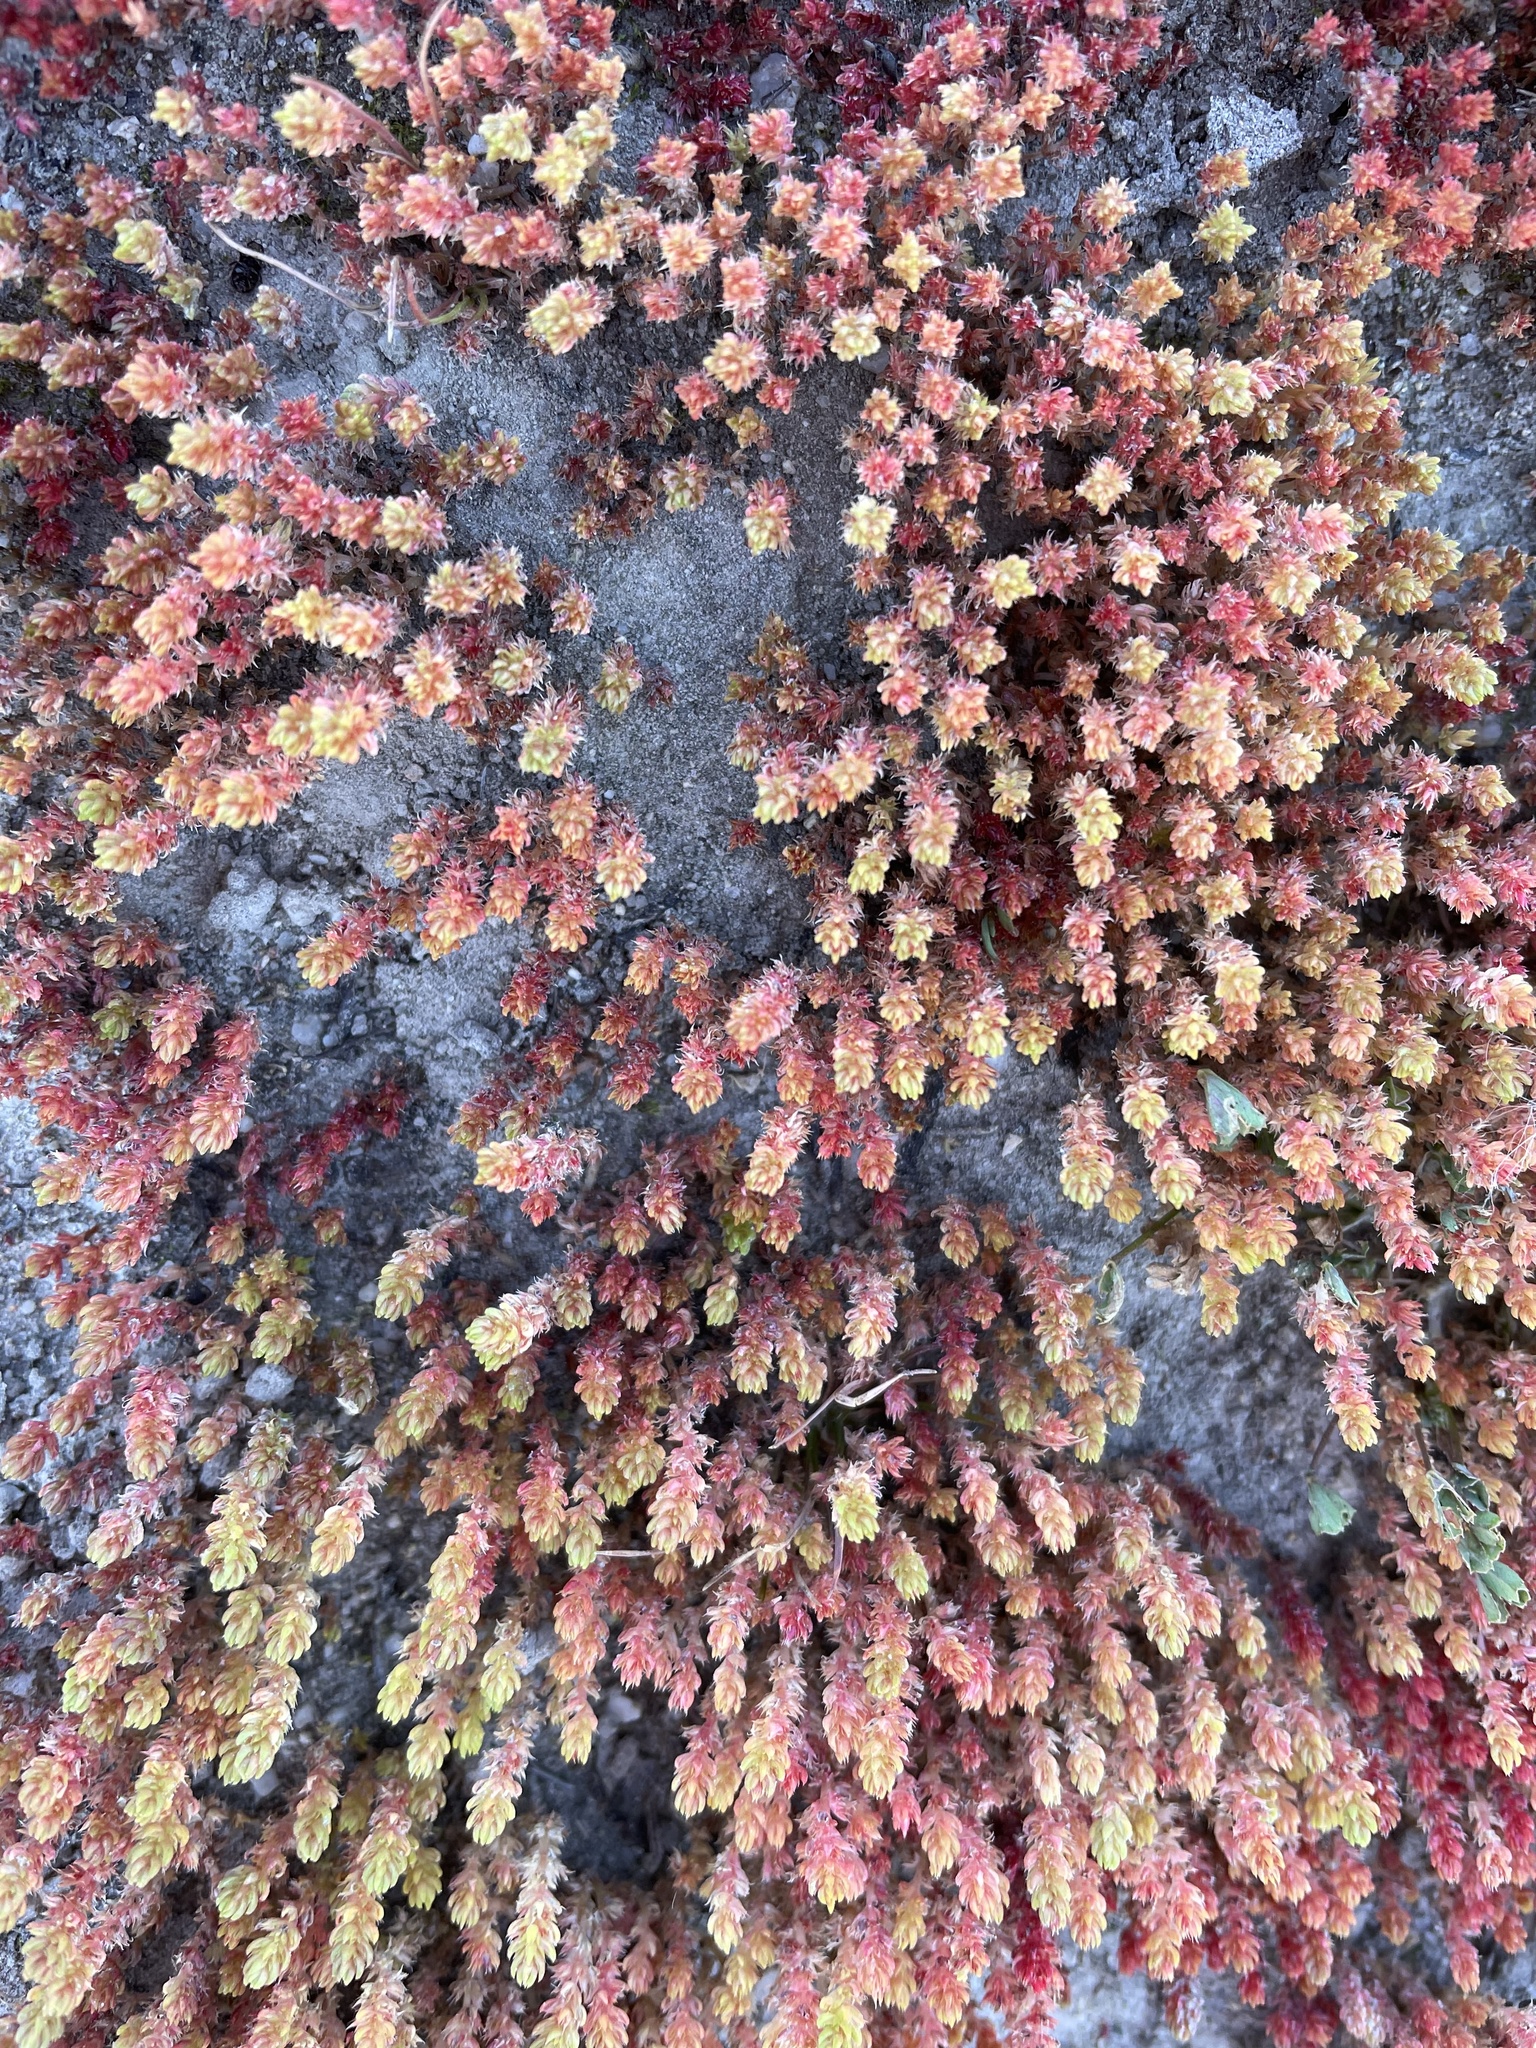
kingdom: Plantae
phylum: Tracheophyta
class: Magnoliopsida
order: Saxifragales
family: Crassulaceae
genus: Crassula
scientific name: Crassula tillaea
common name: Mossy stonecrop
